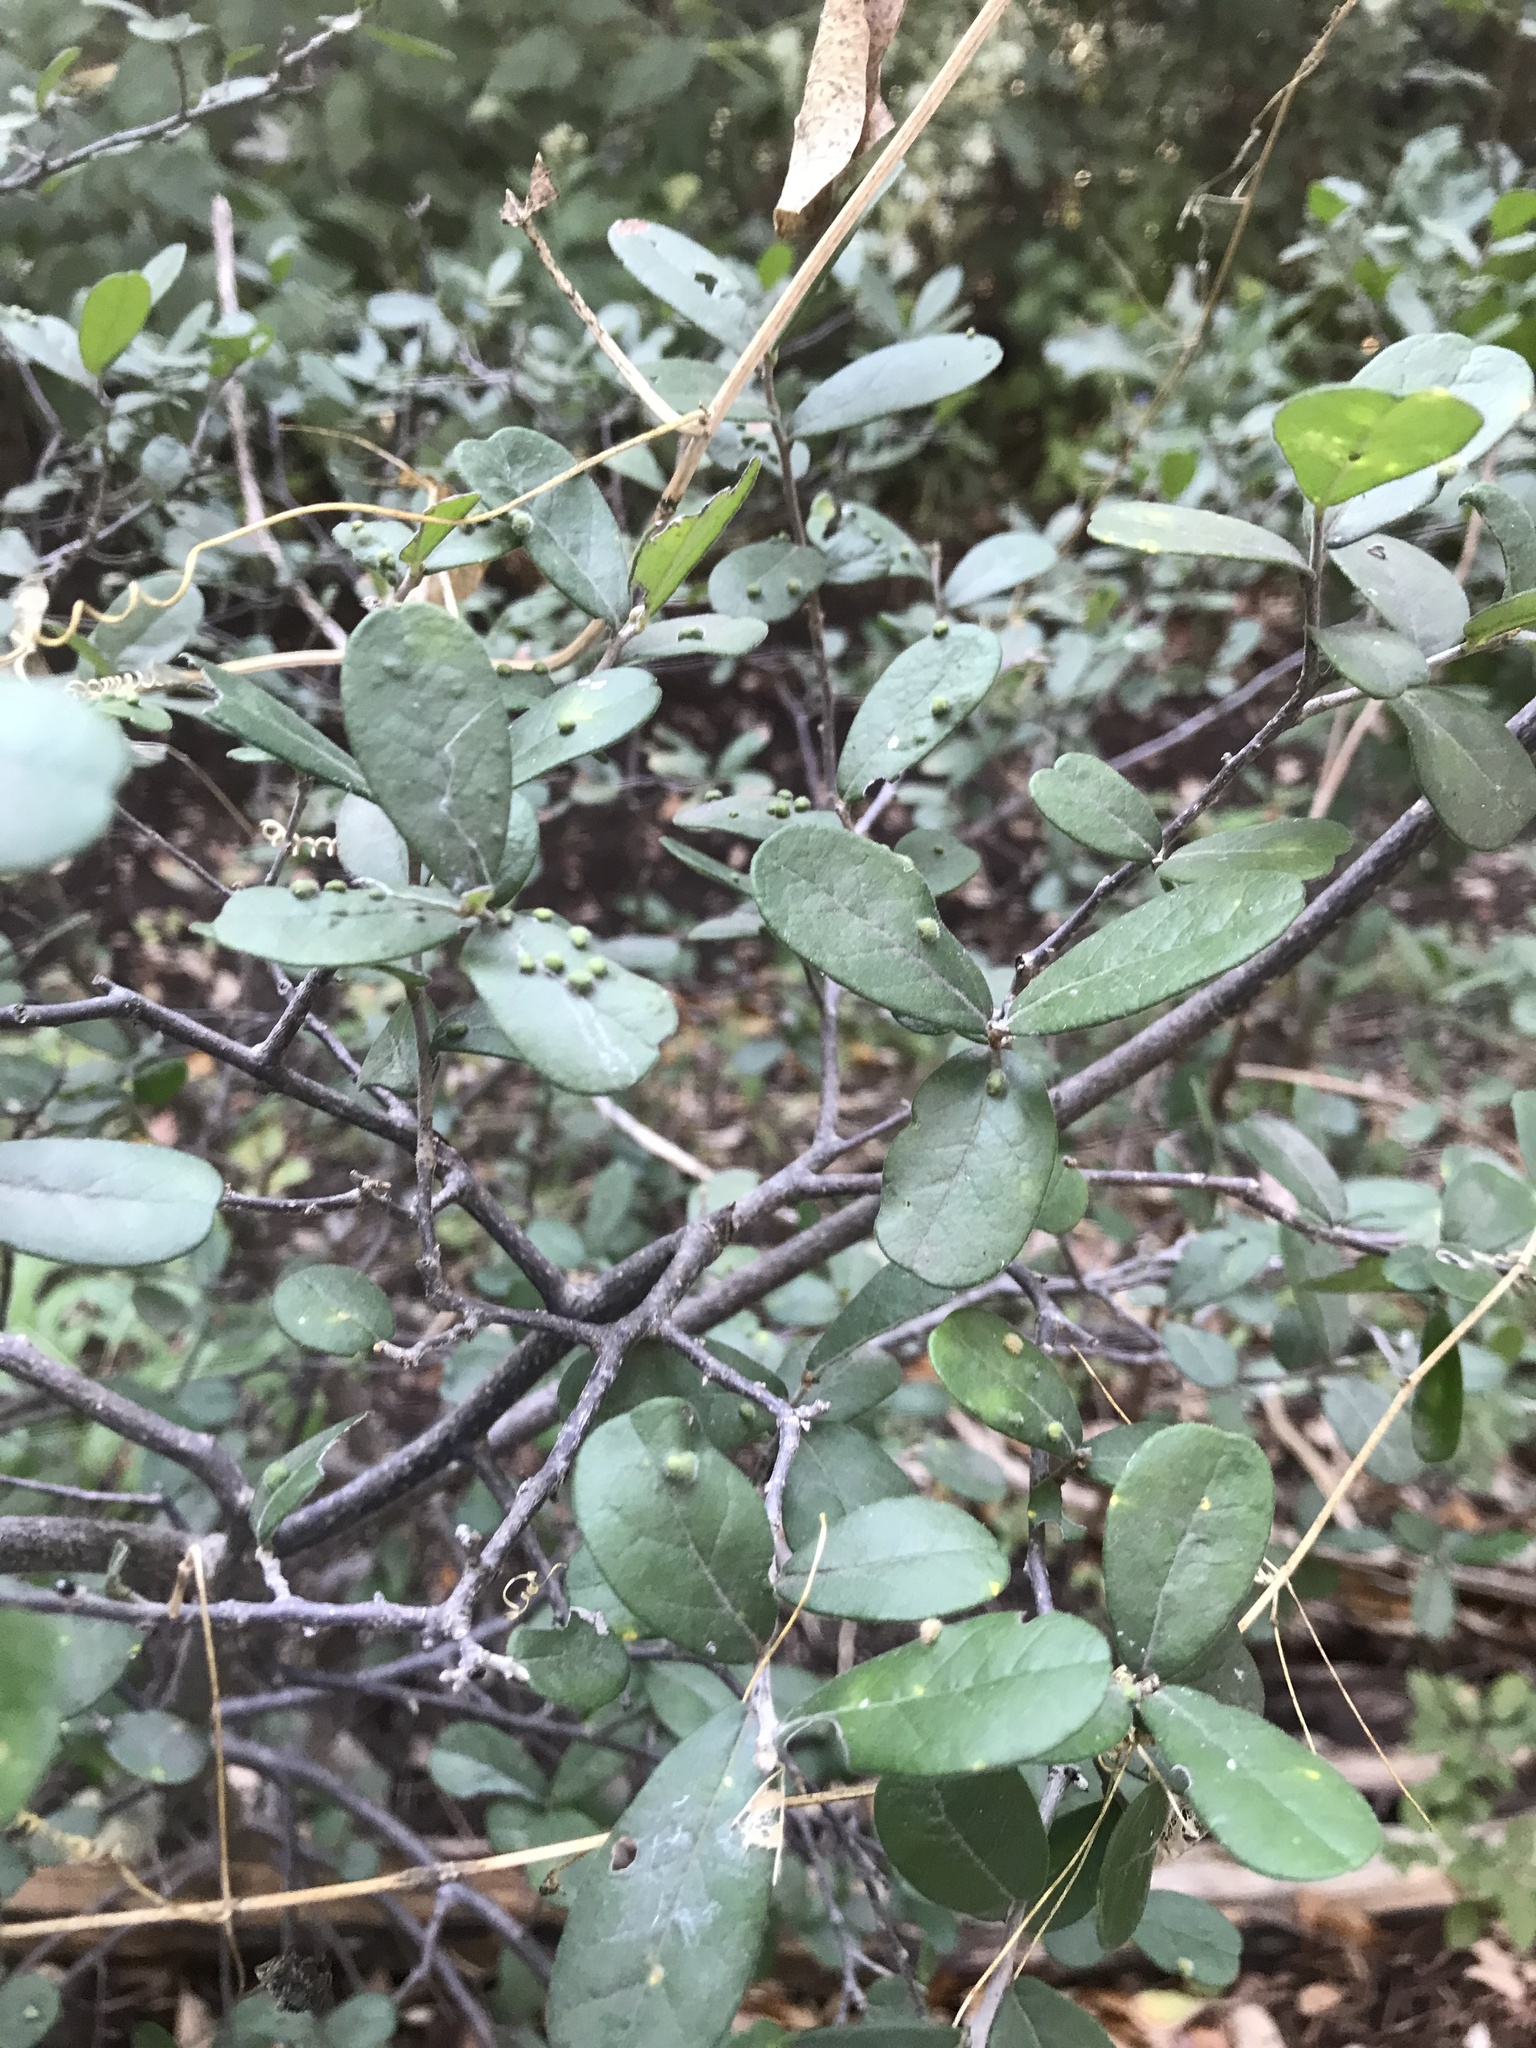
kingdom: Plantae
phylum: Tracheophyta
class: Magnoliopsida
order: Ericales
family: Ebenaceae
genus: Diospyros
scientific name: Diospyros texana
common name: Texas persimmon
